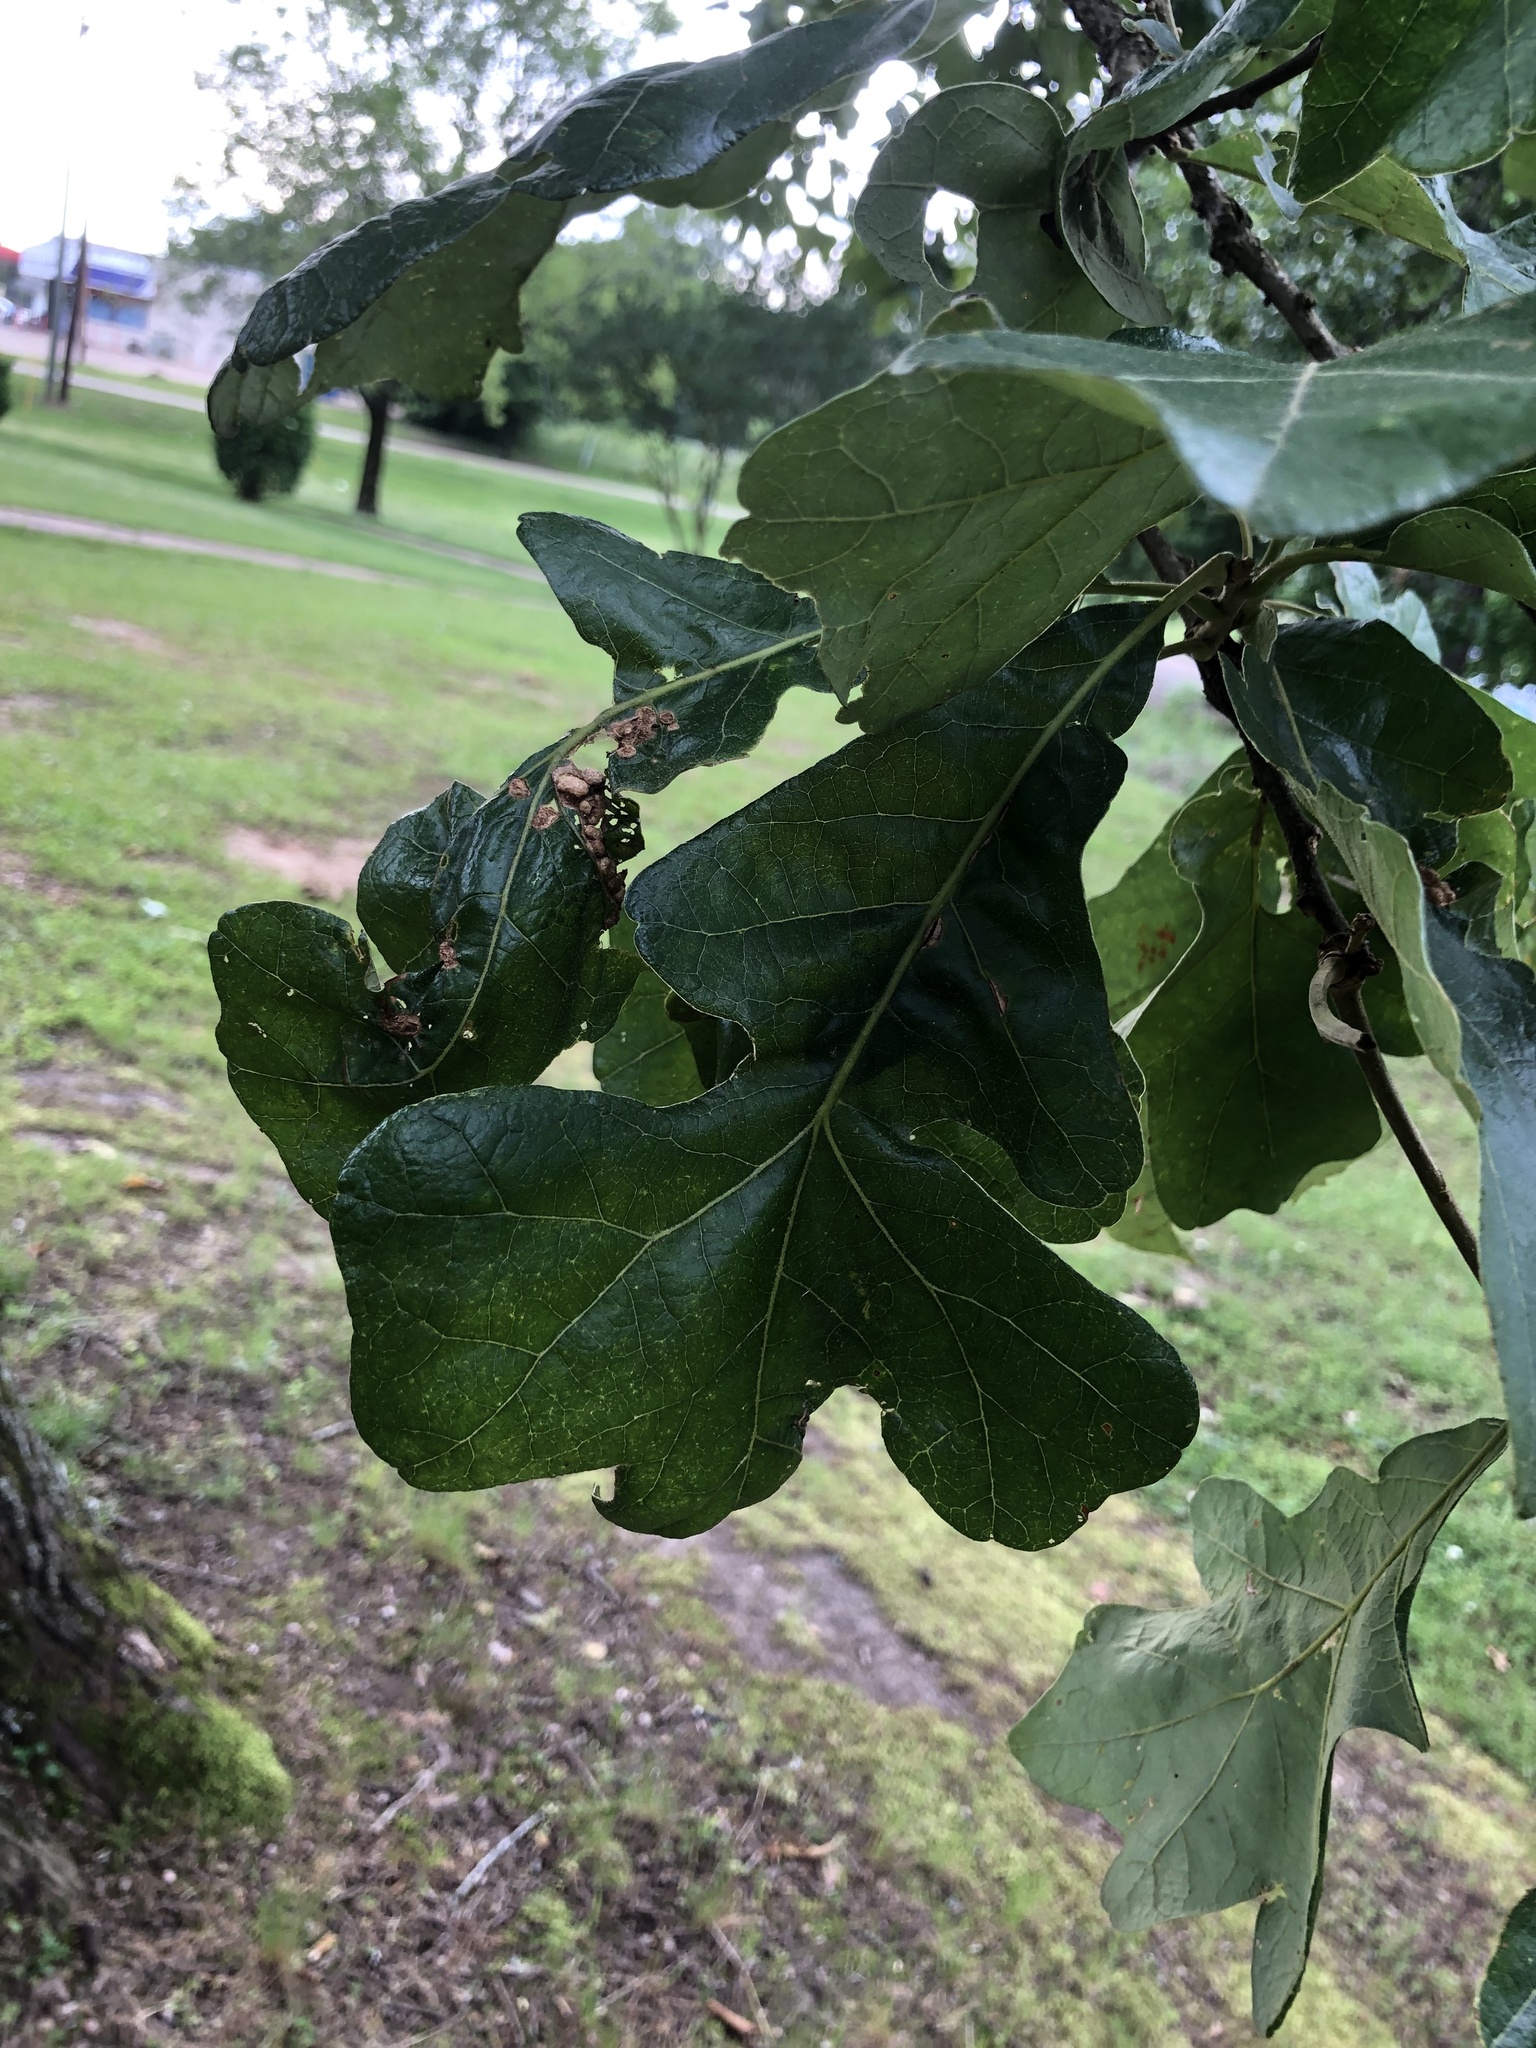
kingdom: Plantae
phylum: Tracheophyta
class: Magnoliopsida
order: Fagales
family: Fagaceae
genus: Quercus
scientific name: Quercus stellata
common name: Post oak
